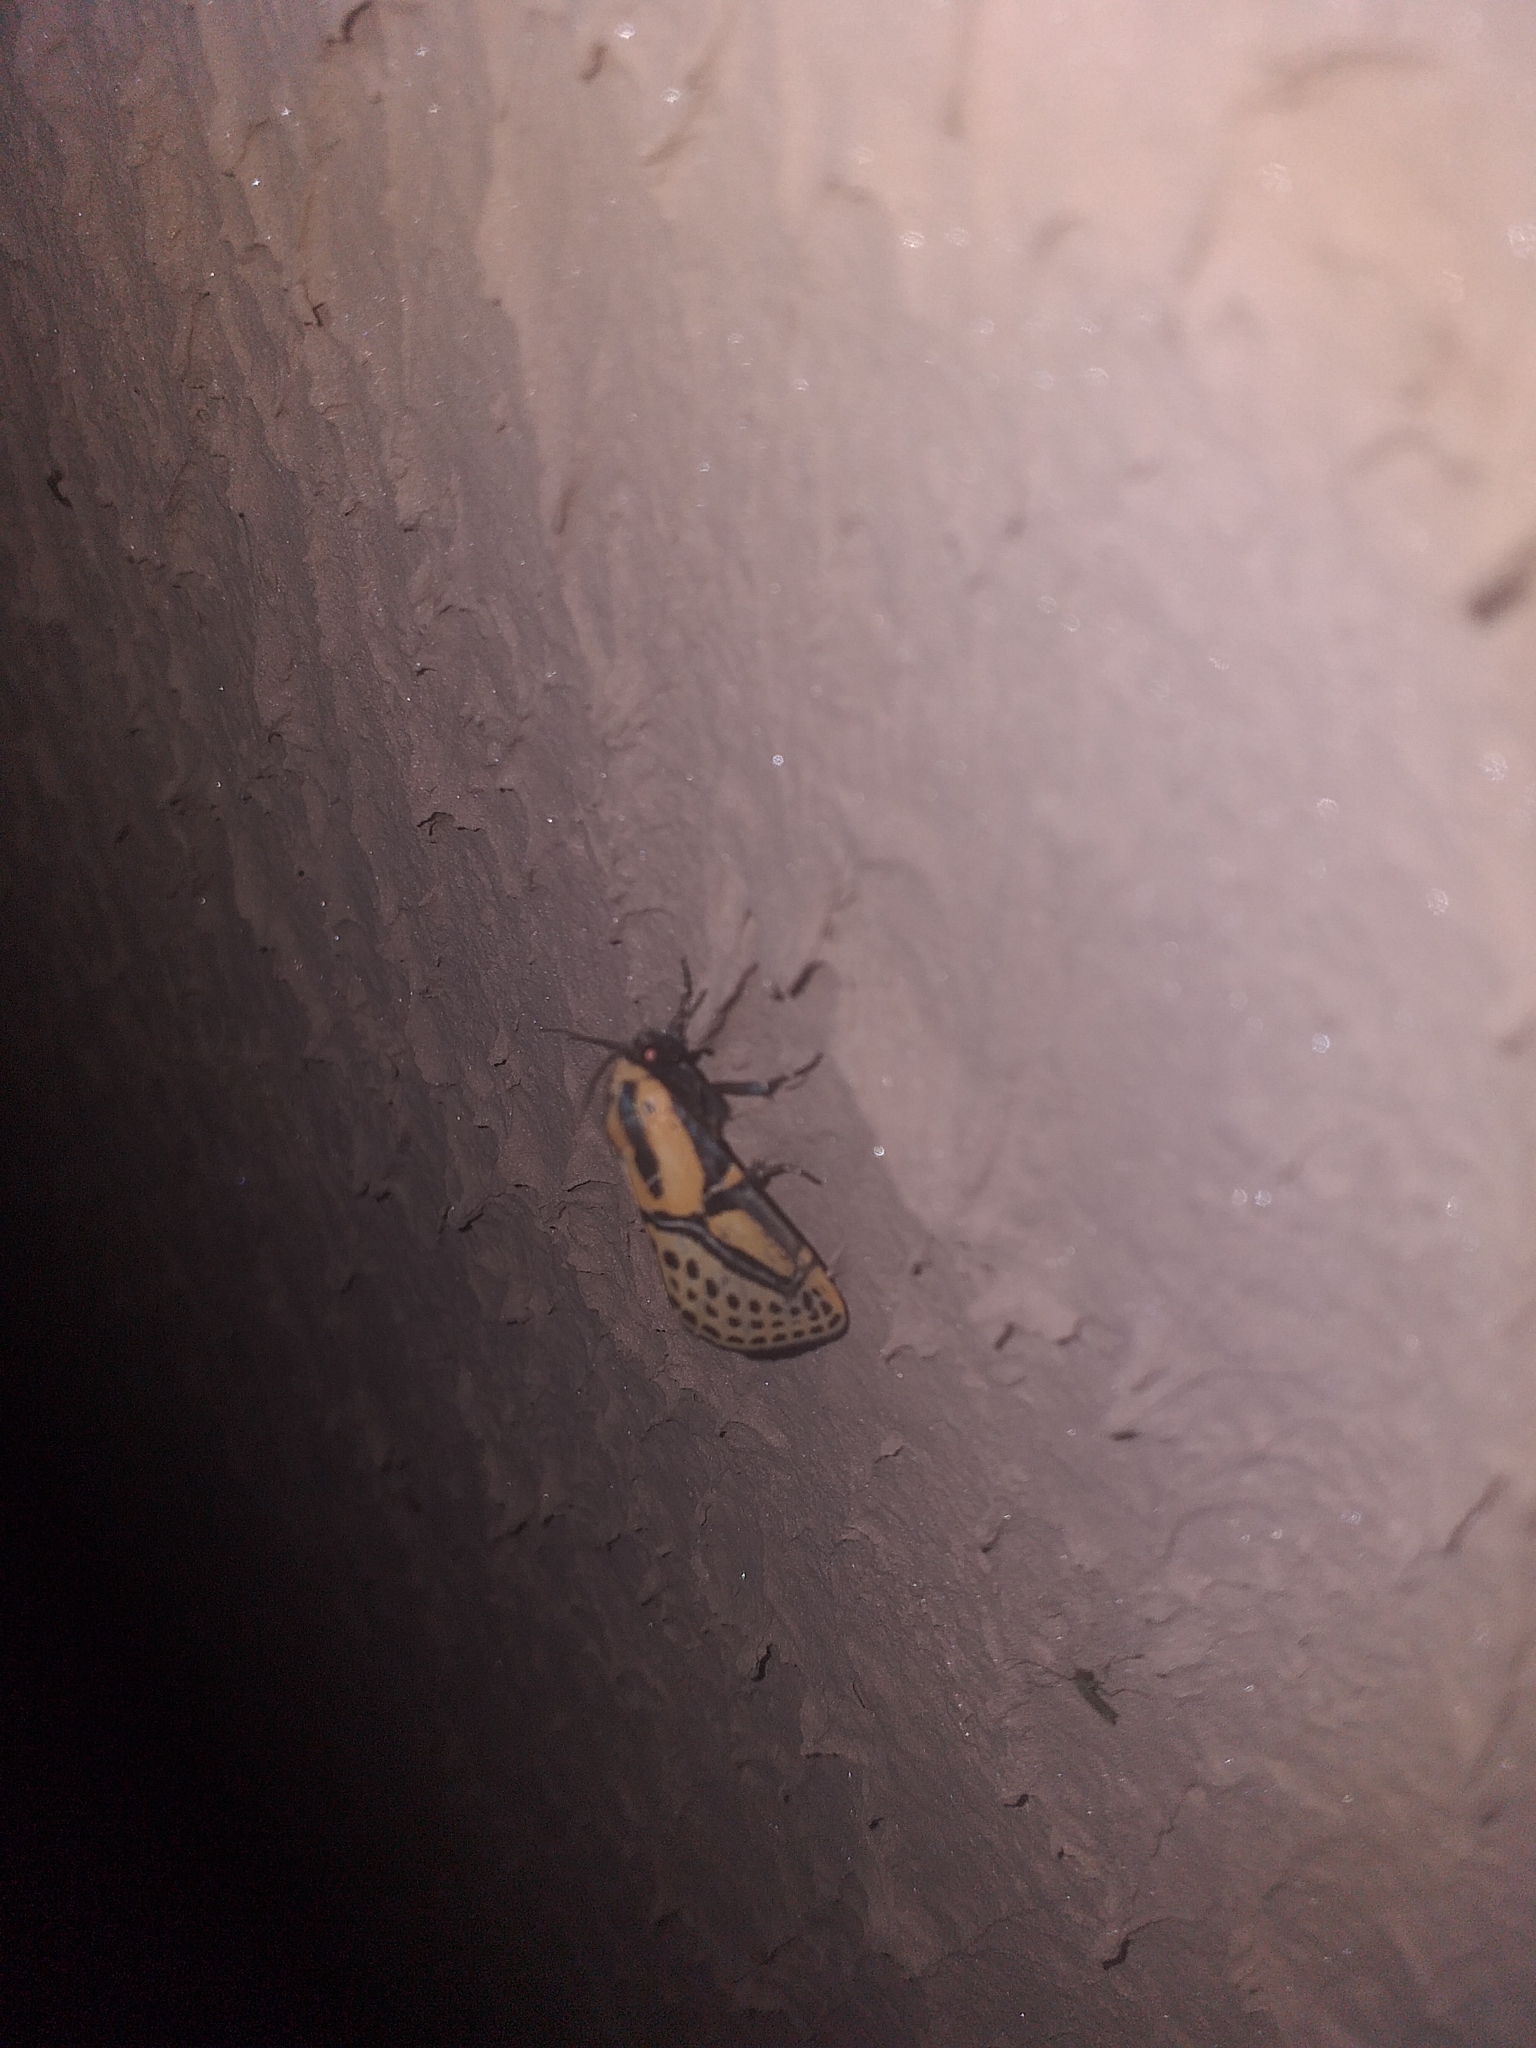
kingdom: Animalia
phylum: Arthropoda
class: Insecta
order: Lepidoptera
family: Erebidae
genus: Diphthera
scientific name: Diphthera festiva
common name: Hieroglyphic moth
